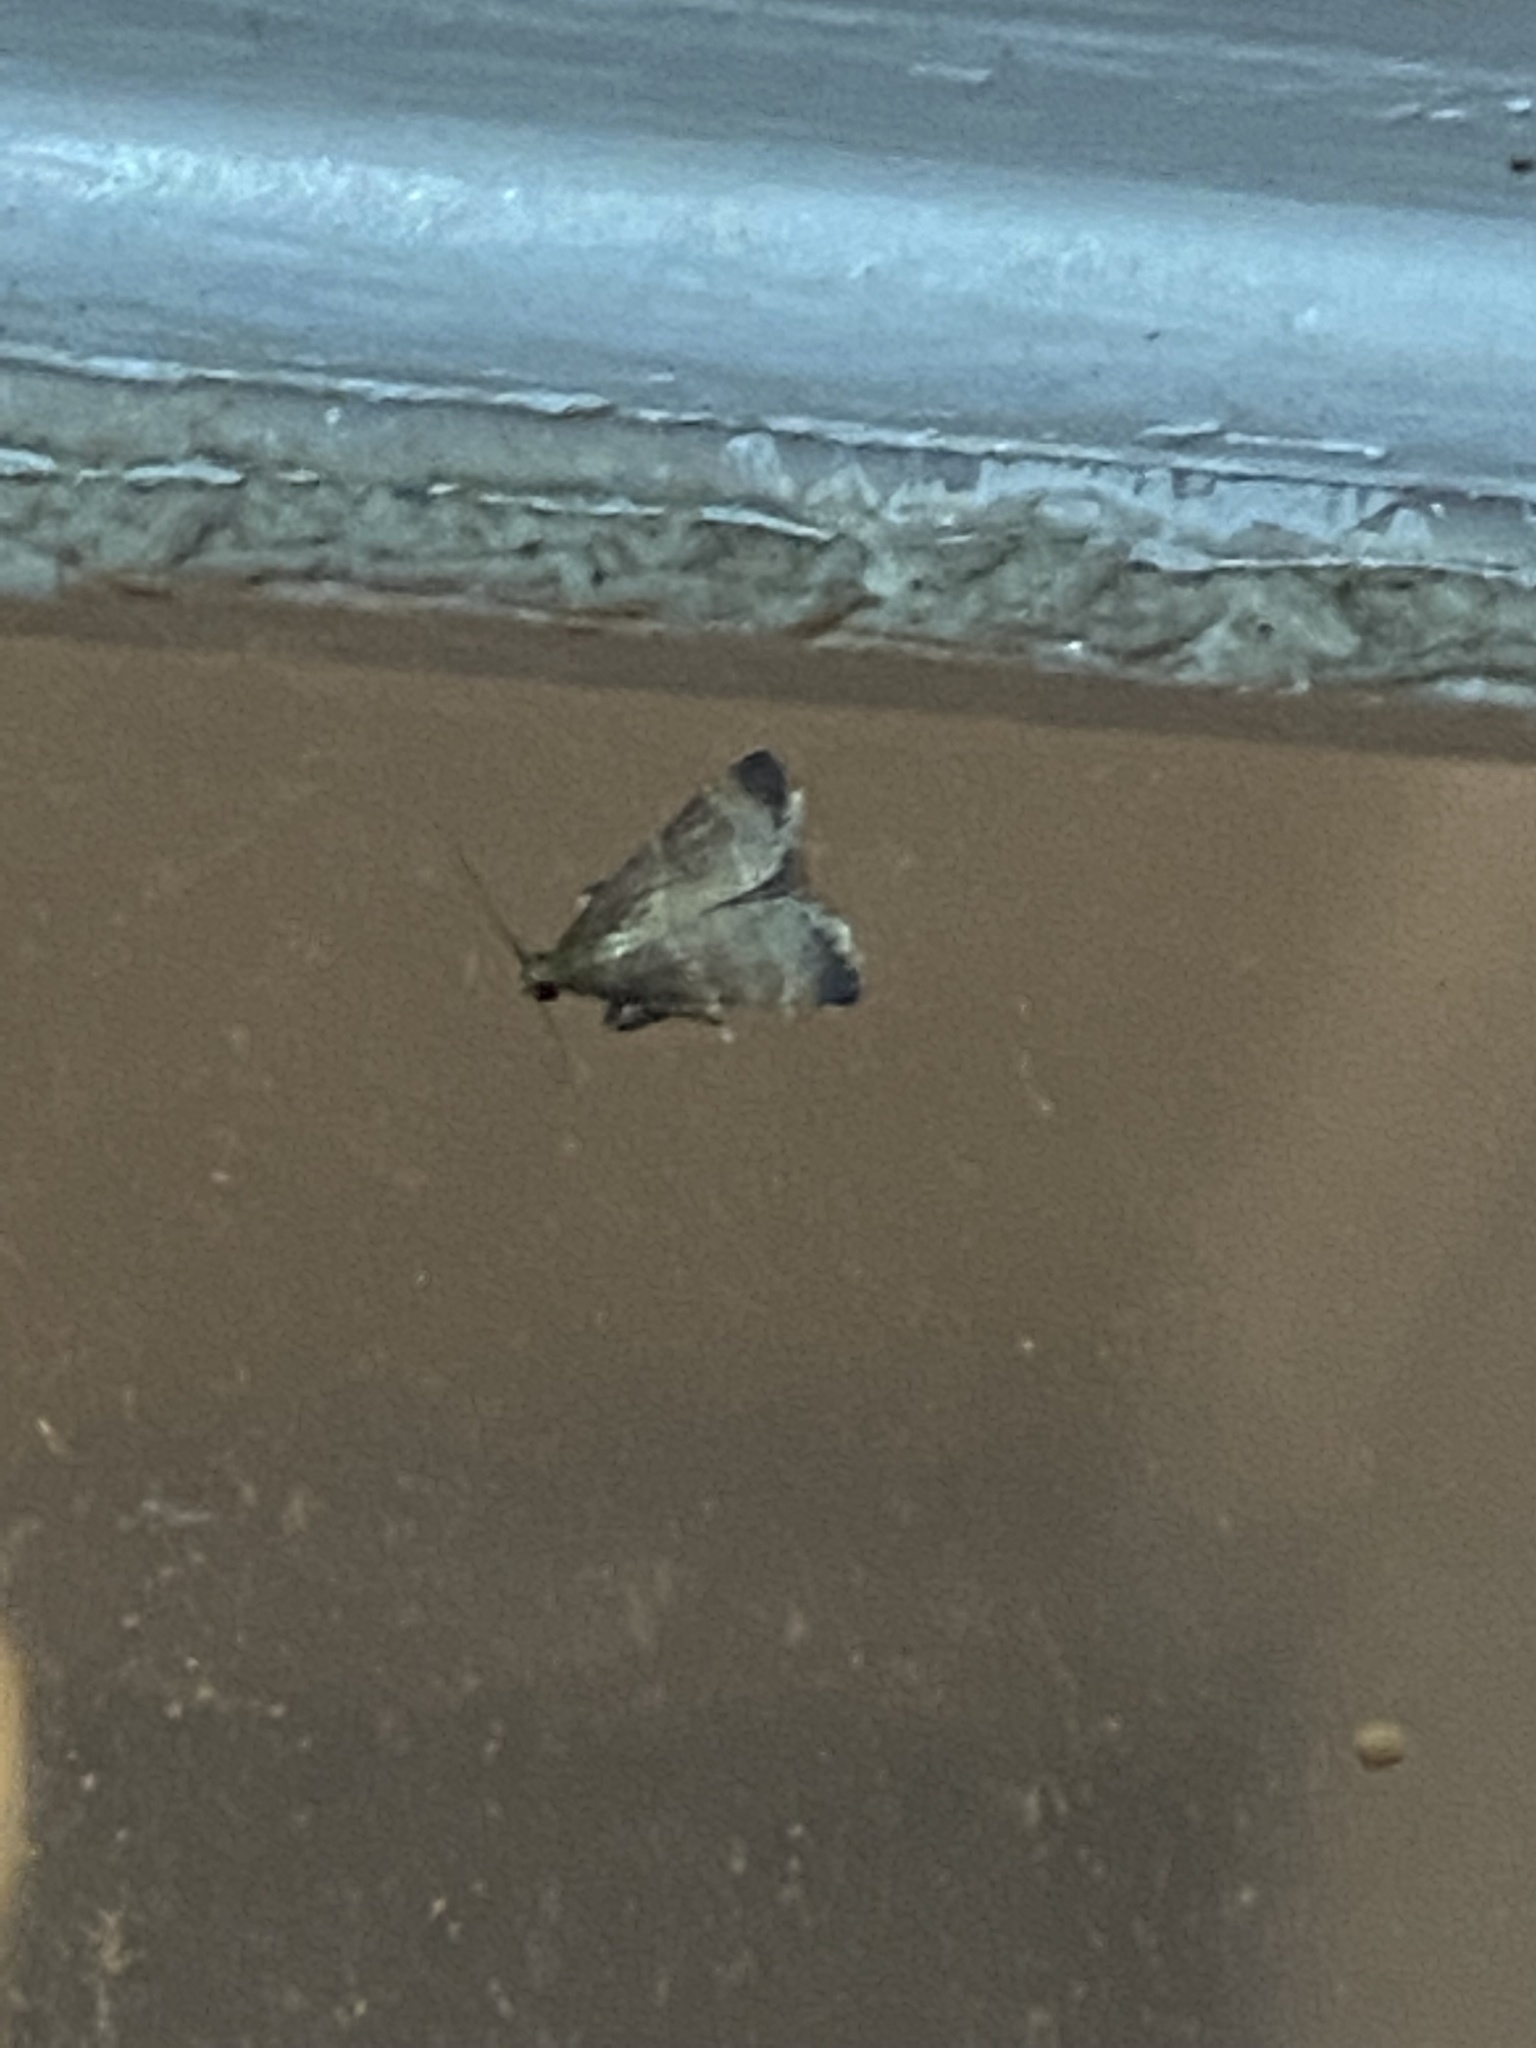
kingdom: Animalia
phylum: Arthropoda
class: Insecta
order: Lepidoptera
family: Pyralidae
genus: Arta
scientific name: Arta statalis
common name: Posturing arta moth
